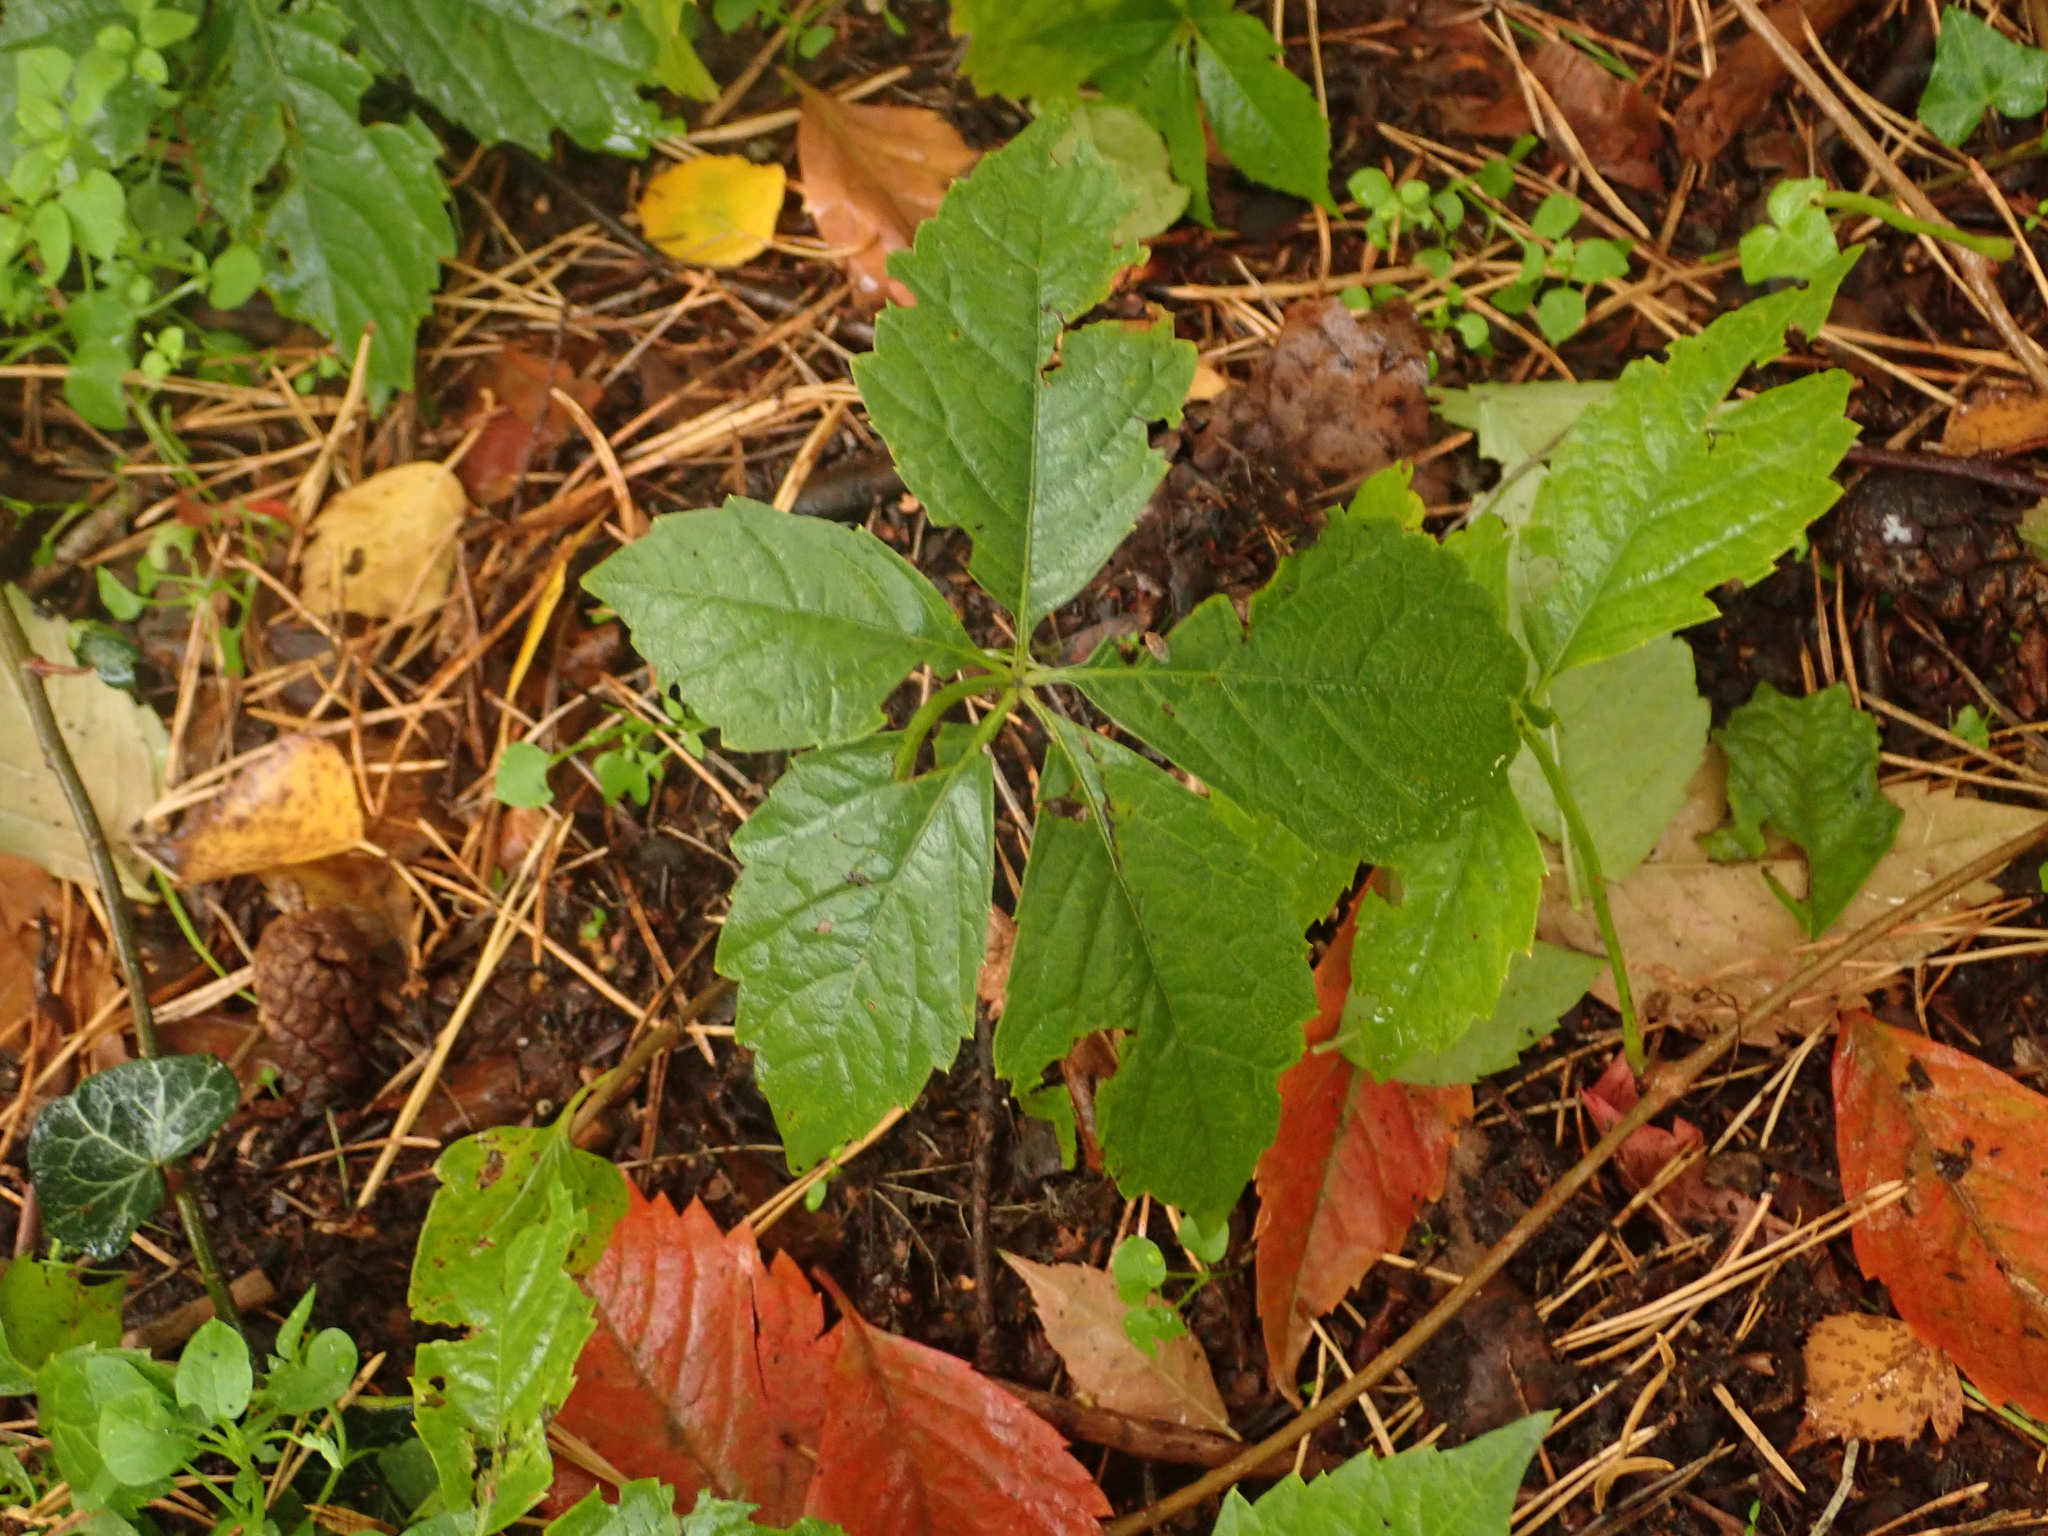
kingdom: Plantae
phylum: Tracheophyta
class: Magnoliopsida
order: Vitales
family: Vitaceae
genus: Parthenocissus
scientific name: Parthenocissus inserta
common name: False virginia-creeper
